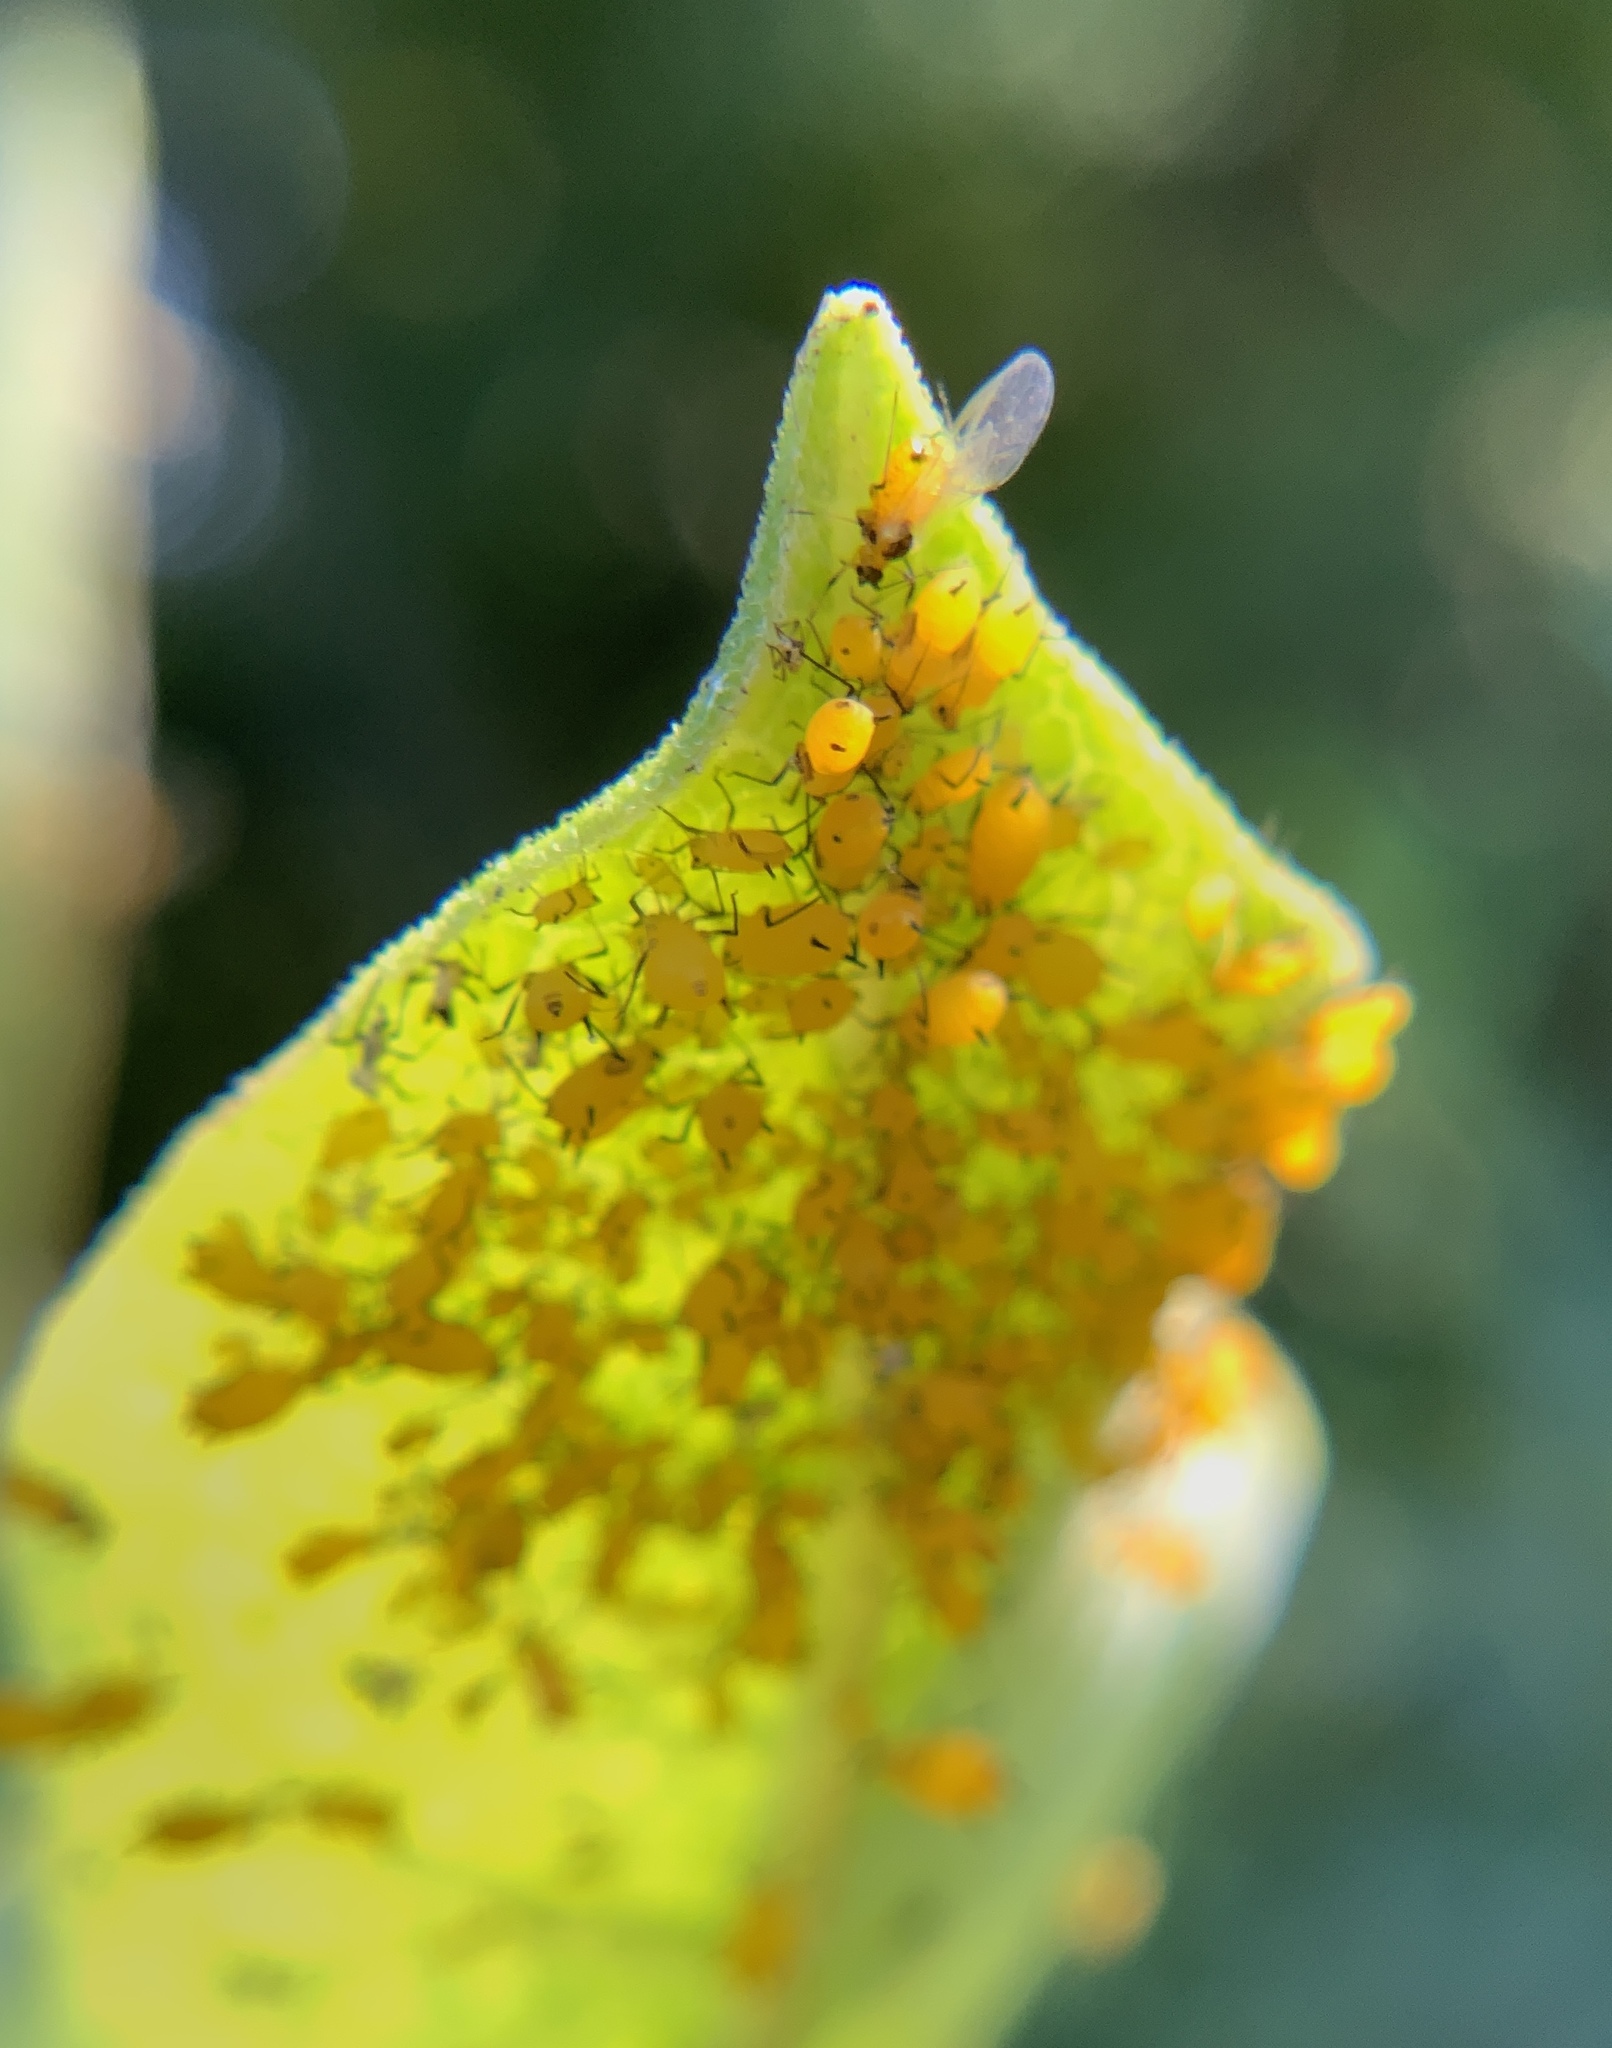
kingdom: Animalia
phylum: Arthropoda
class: Insecta
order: Hemiptera
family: Aphididae
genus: Aphis
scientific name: Aphis nerii
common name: Oleander aphid
